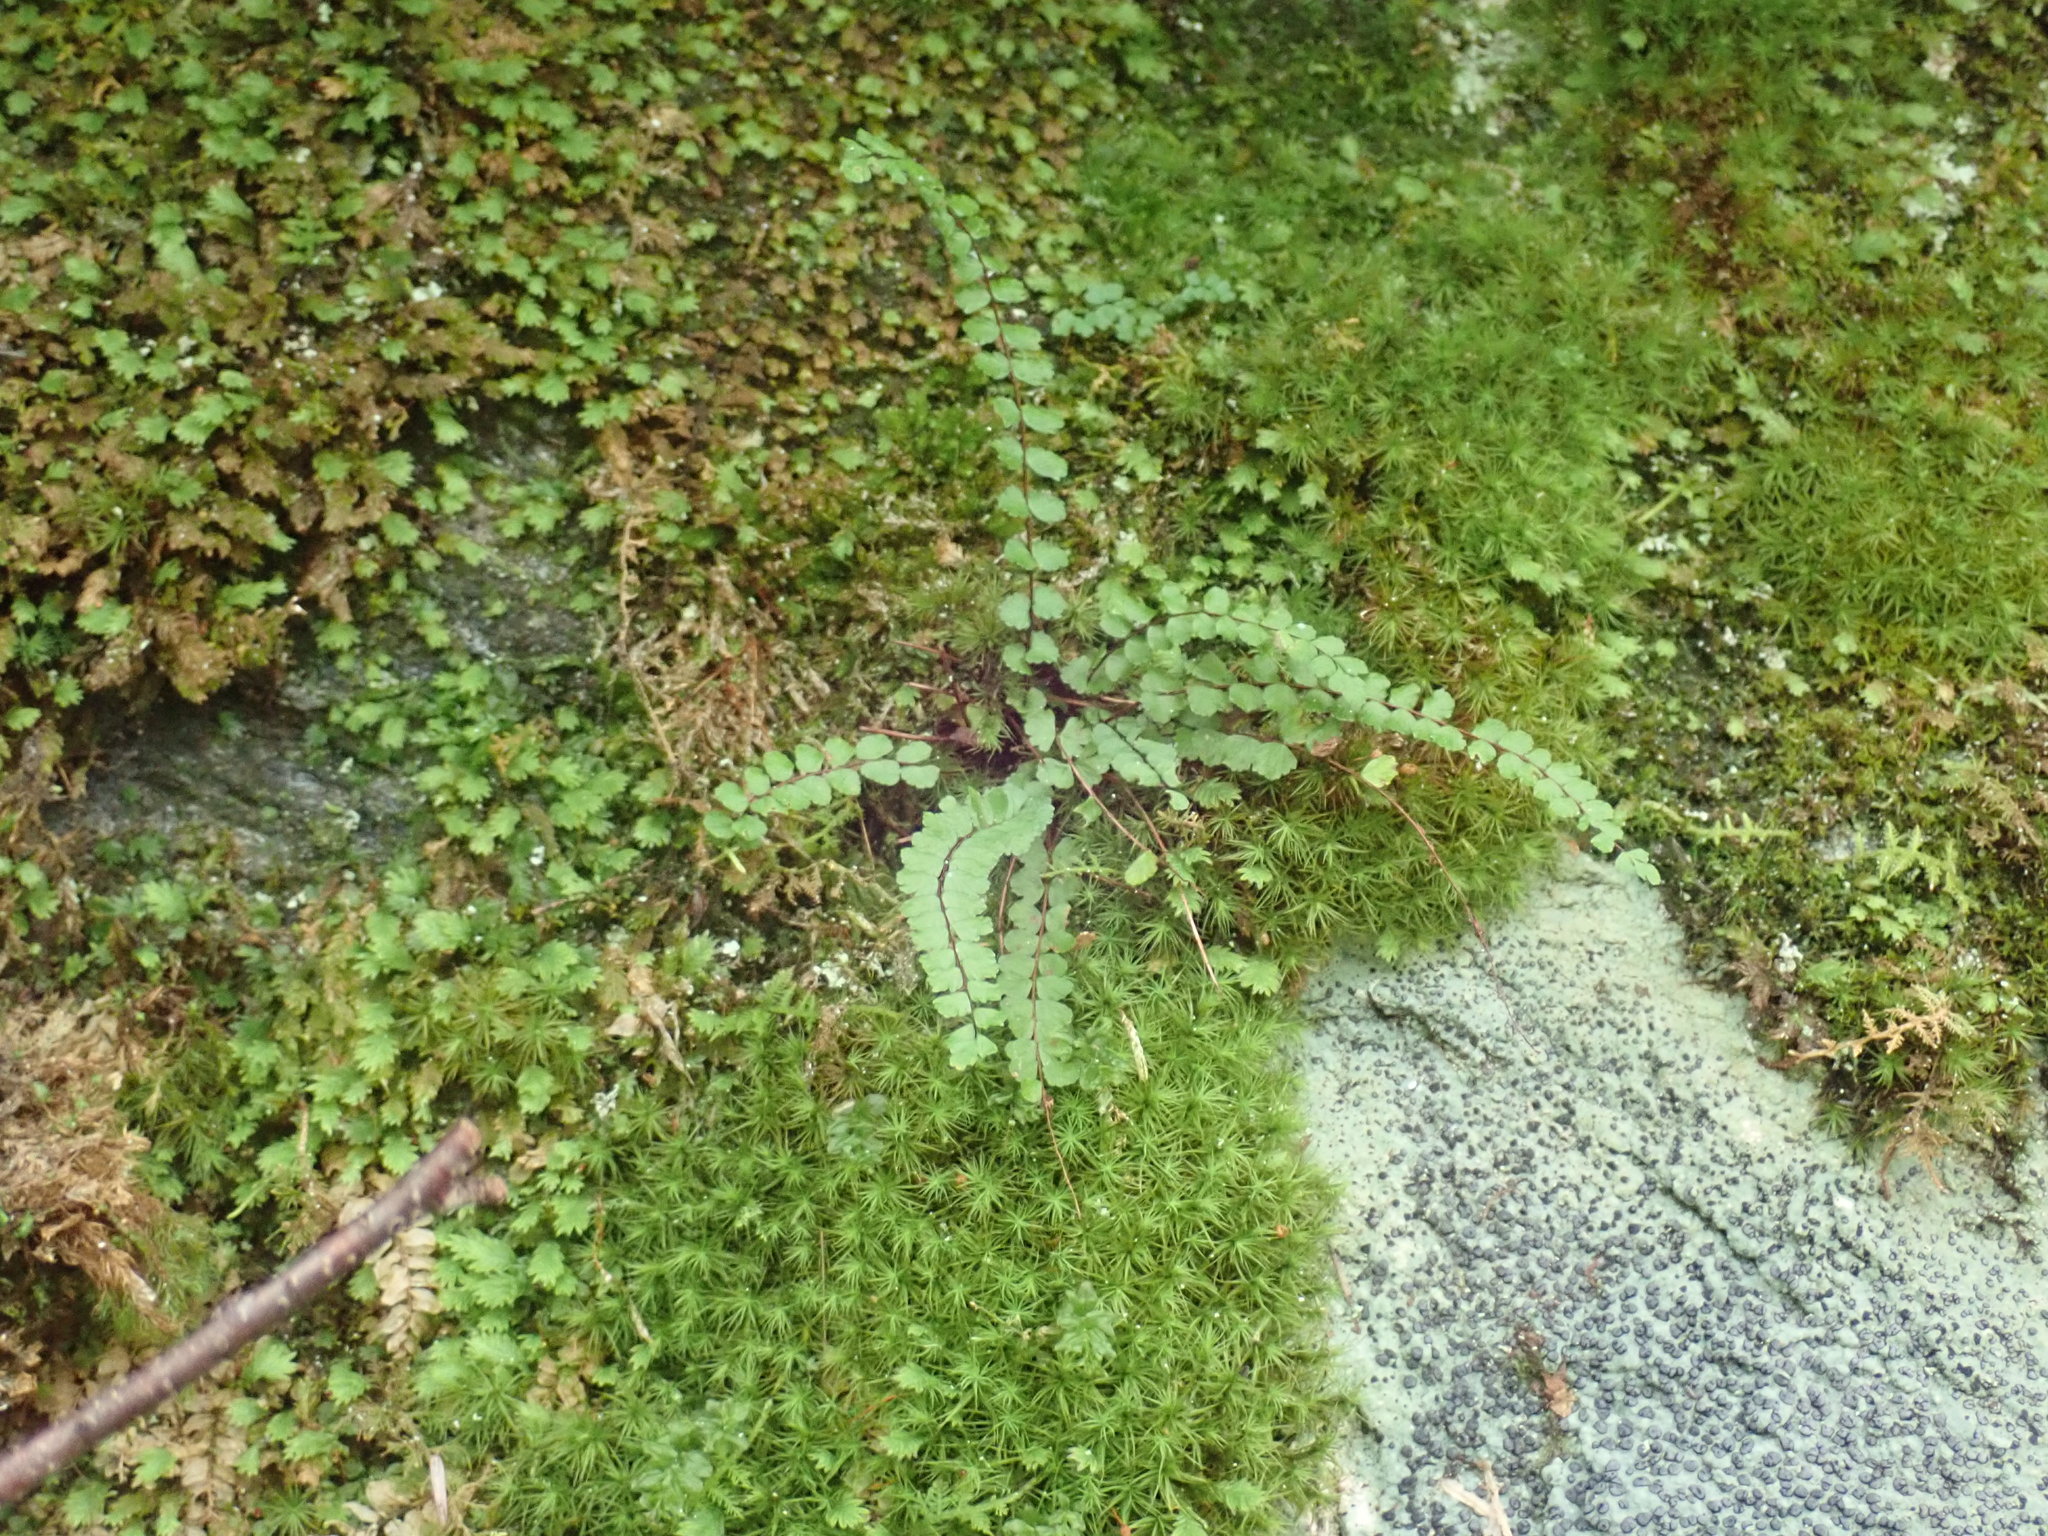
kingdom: Plantae
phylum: Tracheophyta
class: Polypodiopsida
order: Polypodiales
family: Aspleniaceae
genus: Asplenium
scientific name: Asplenium trichomanes
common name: Maidenhair spleenwort
